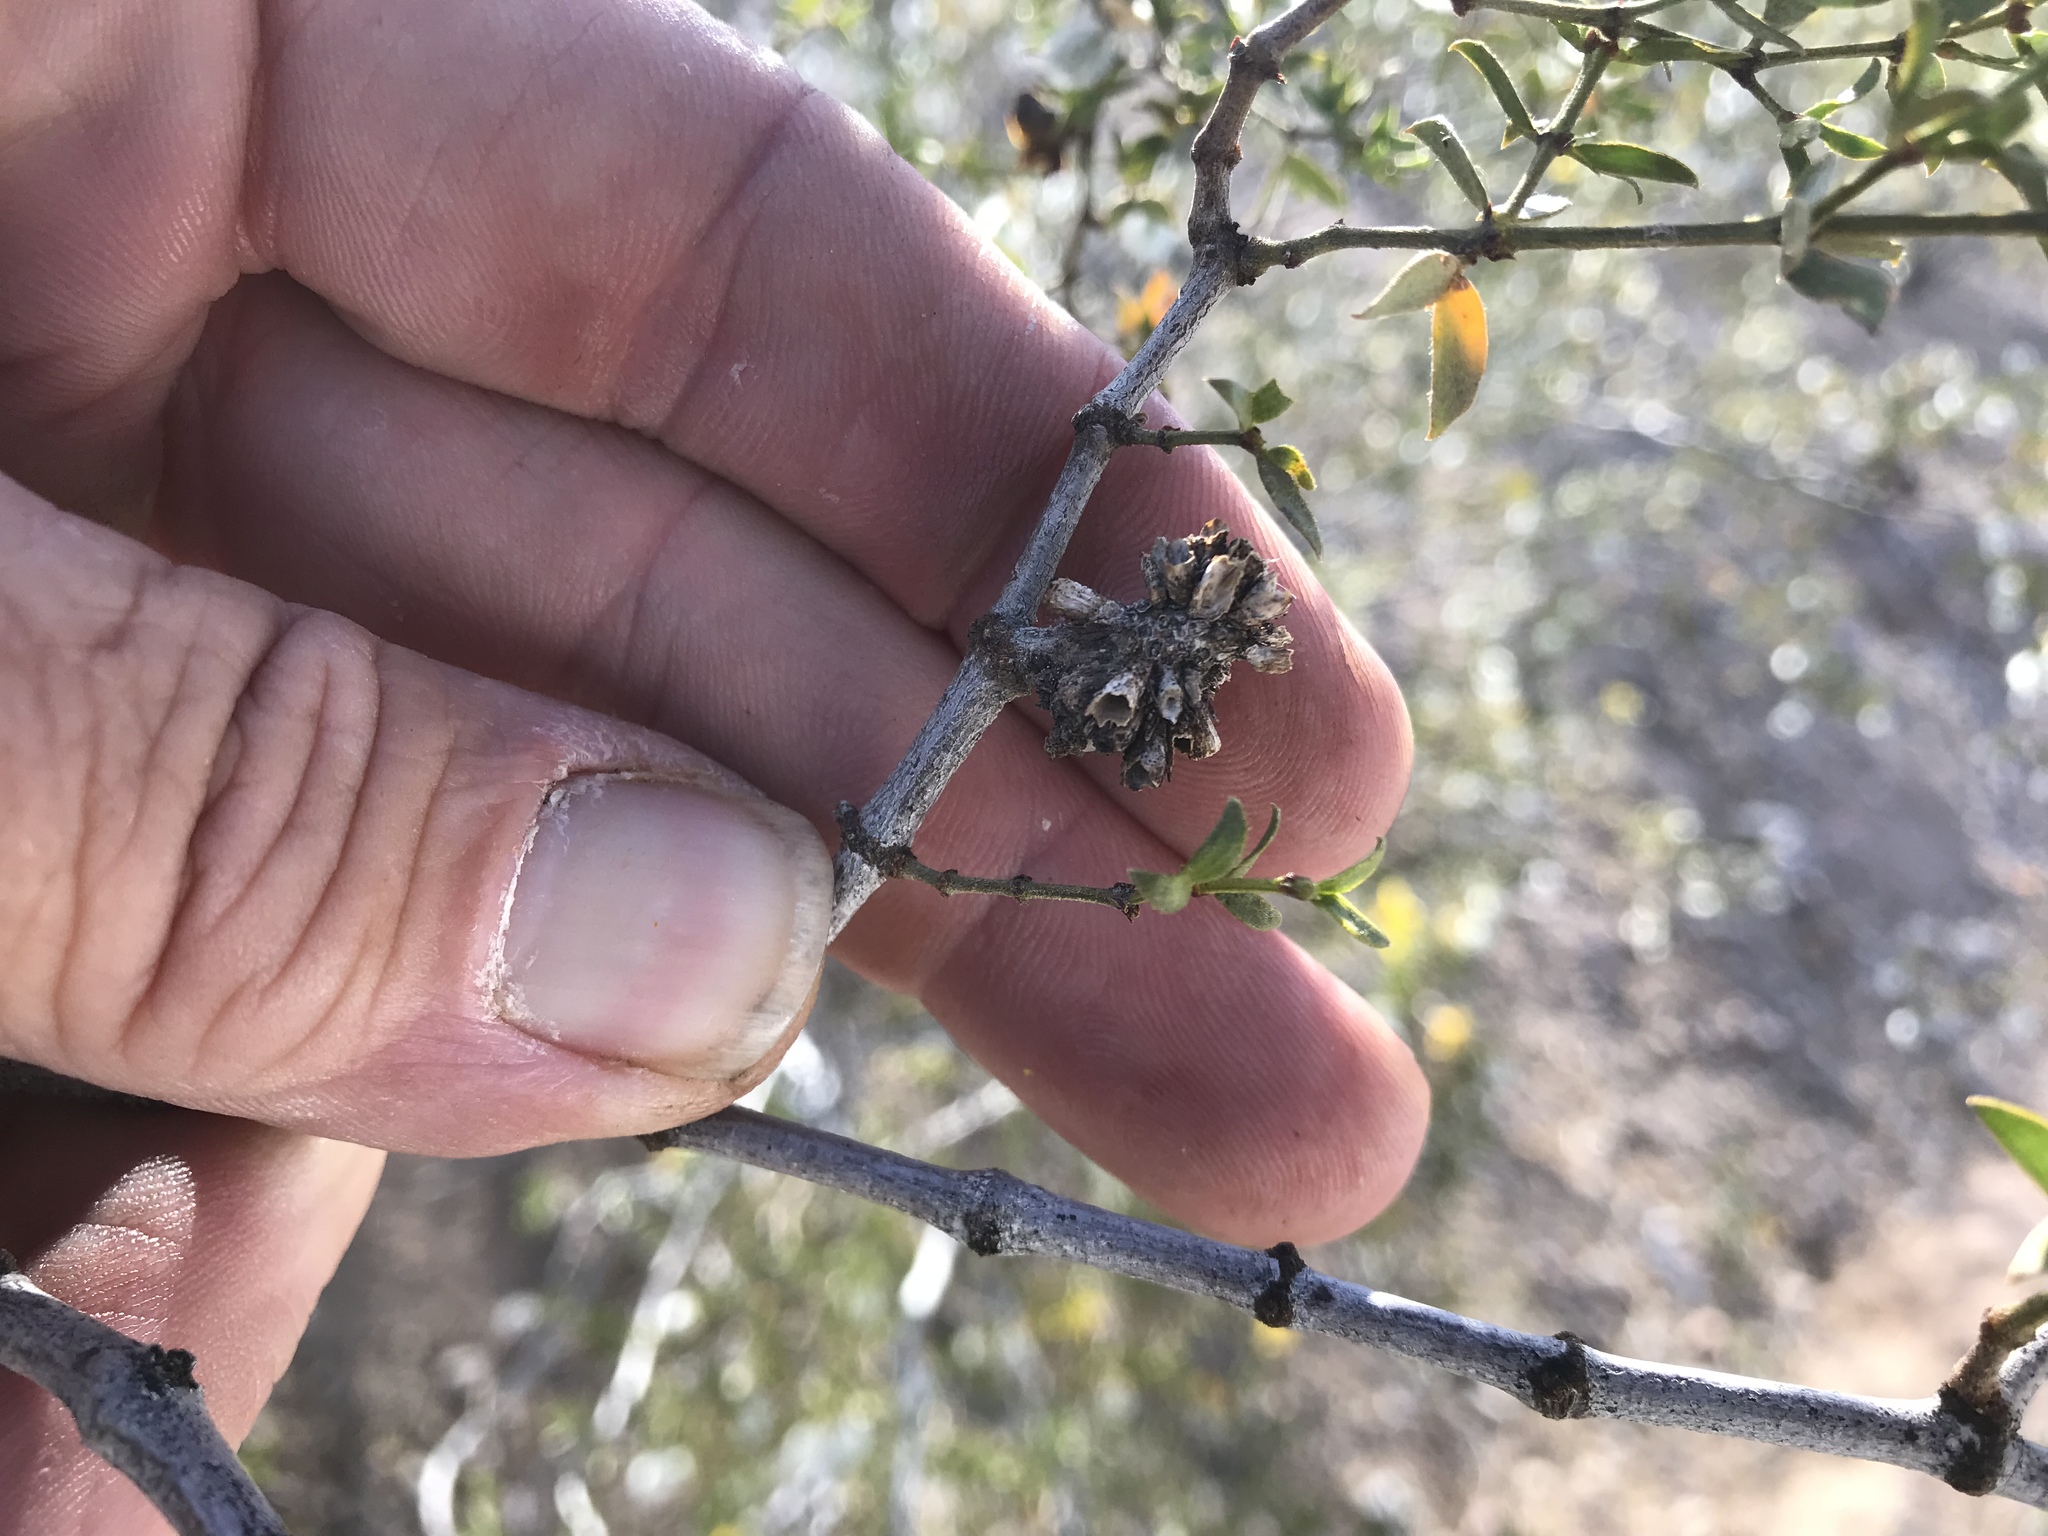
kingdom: Animalia
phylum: Arthropoda
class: Insecta
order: Diptera
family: Cecidomyiidae
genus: Asphondylia
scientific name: Asphondylia auripila
